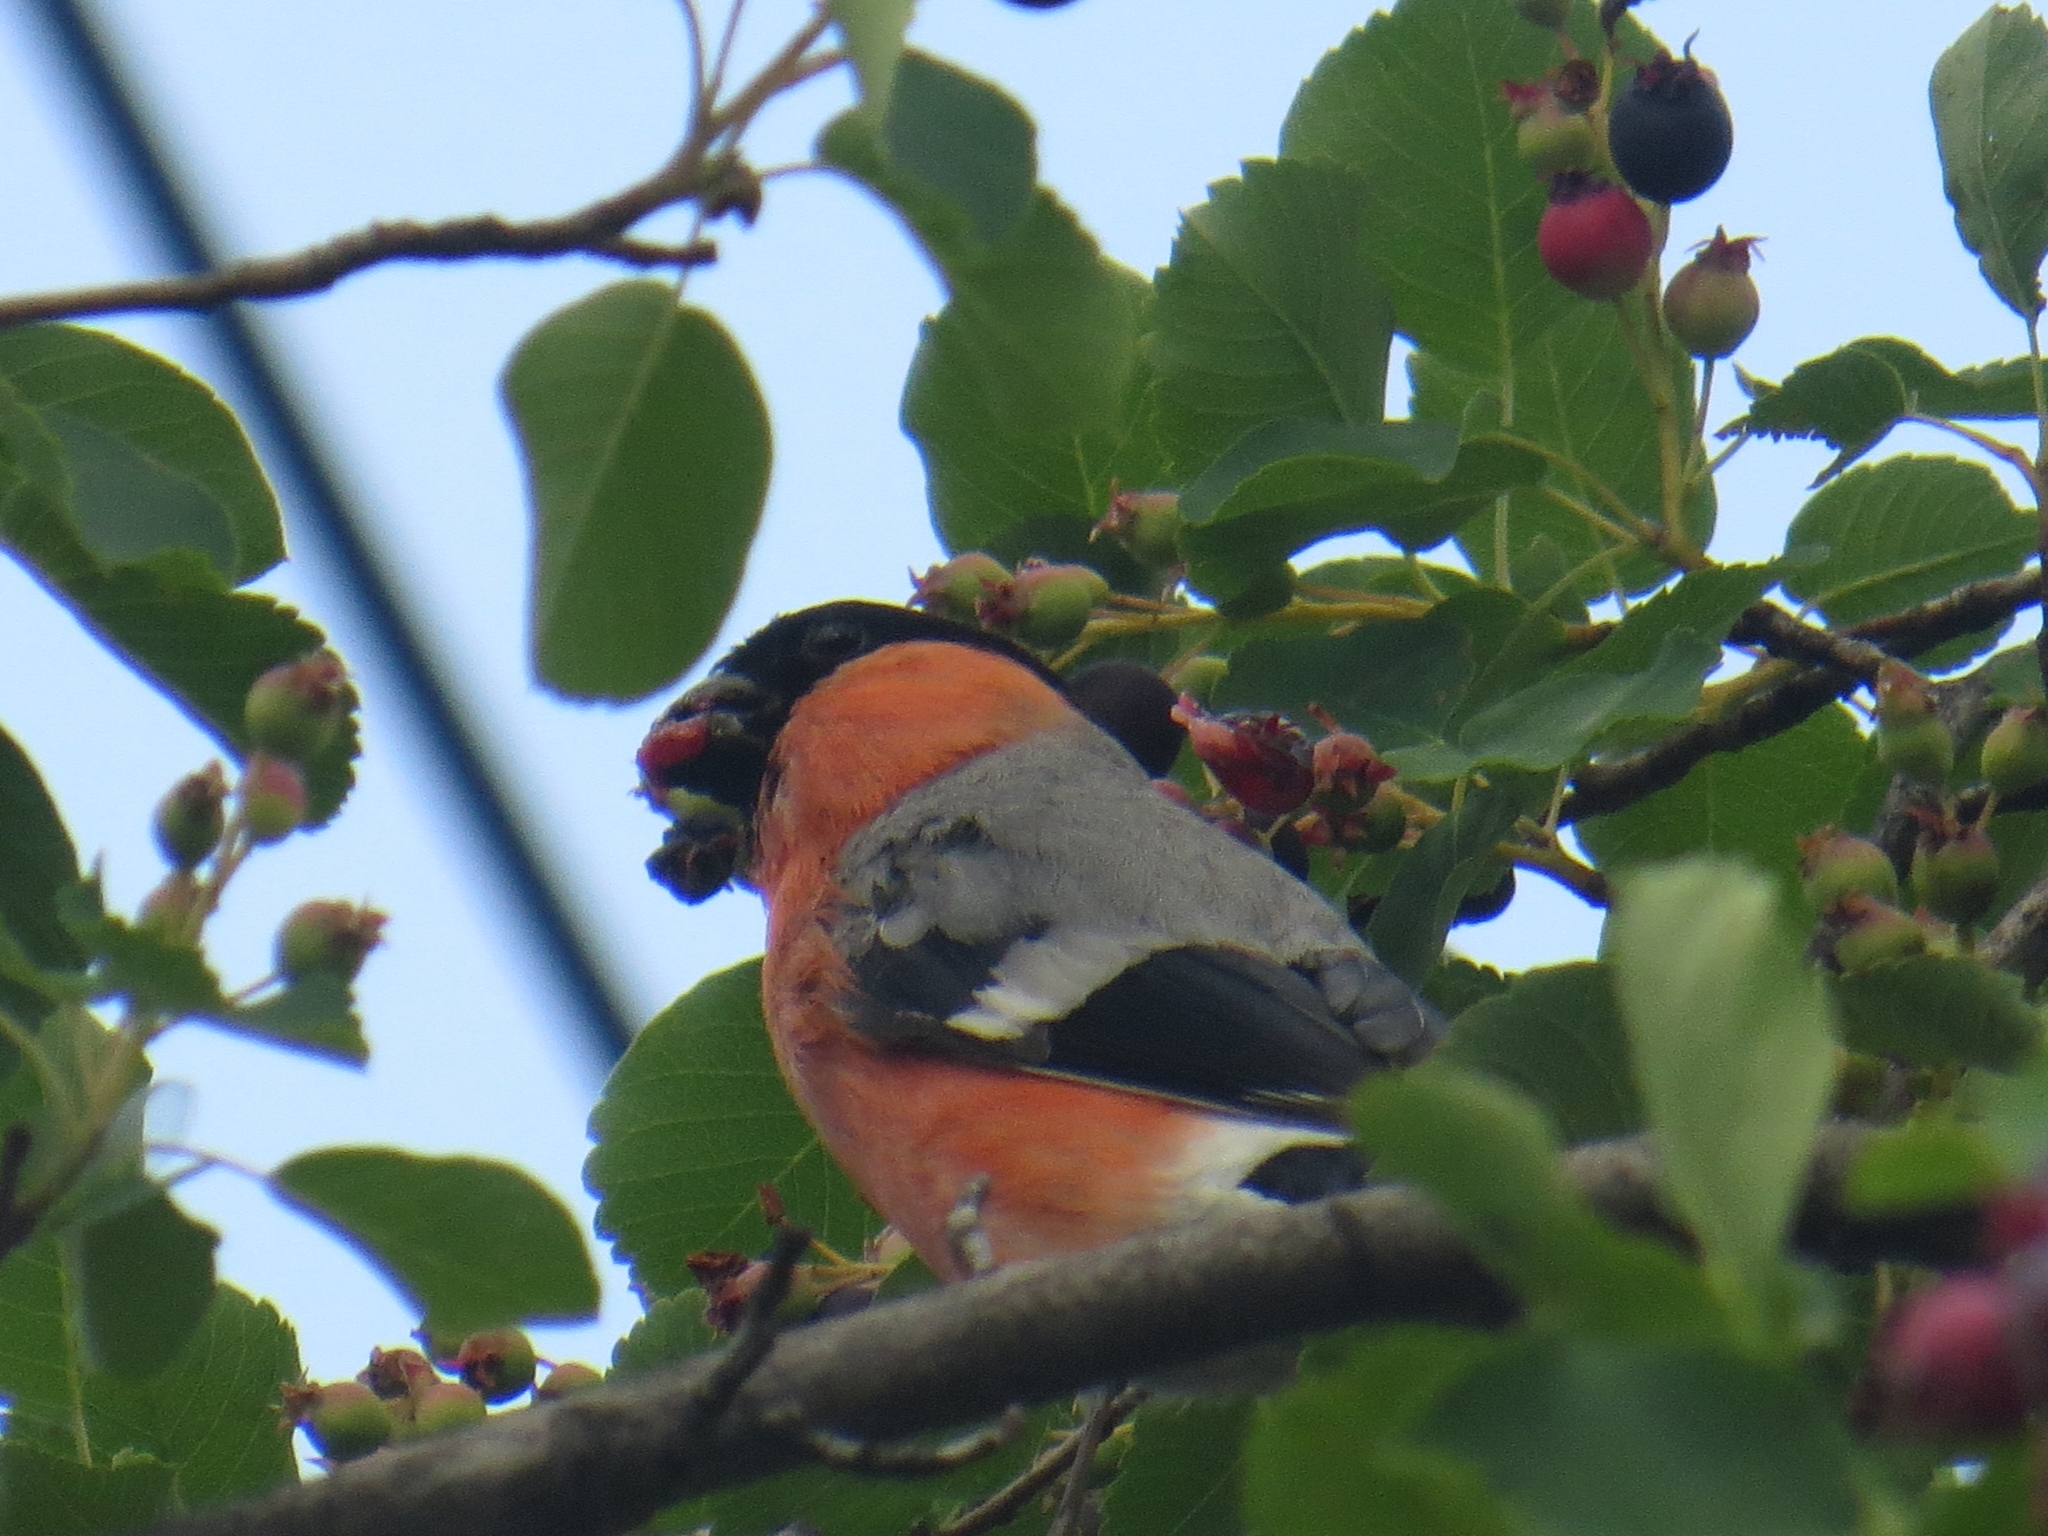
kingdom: Animalia
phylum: Chordata
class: Aves
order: Passeriformes
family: Fringillidae
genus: Pyrrhula
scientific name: Pyrrhula pyrrhula
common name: Eurasian bullfinch
